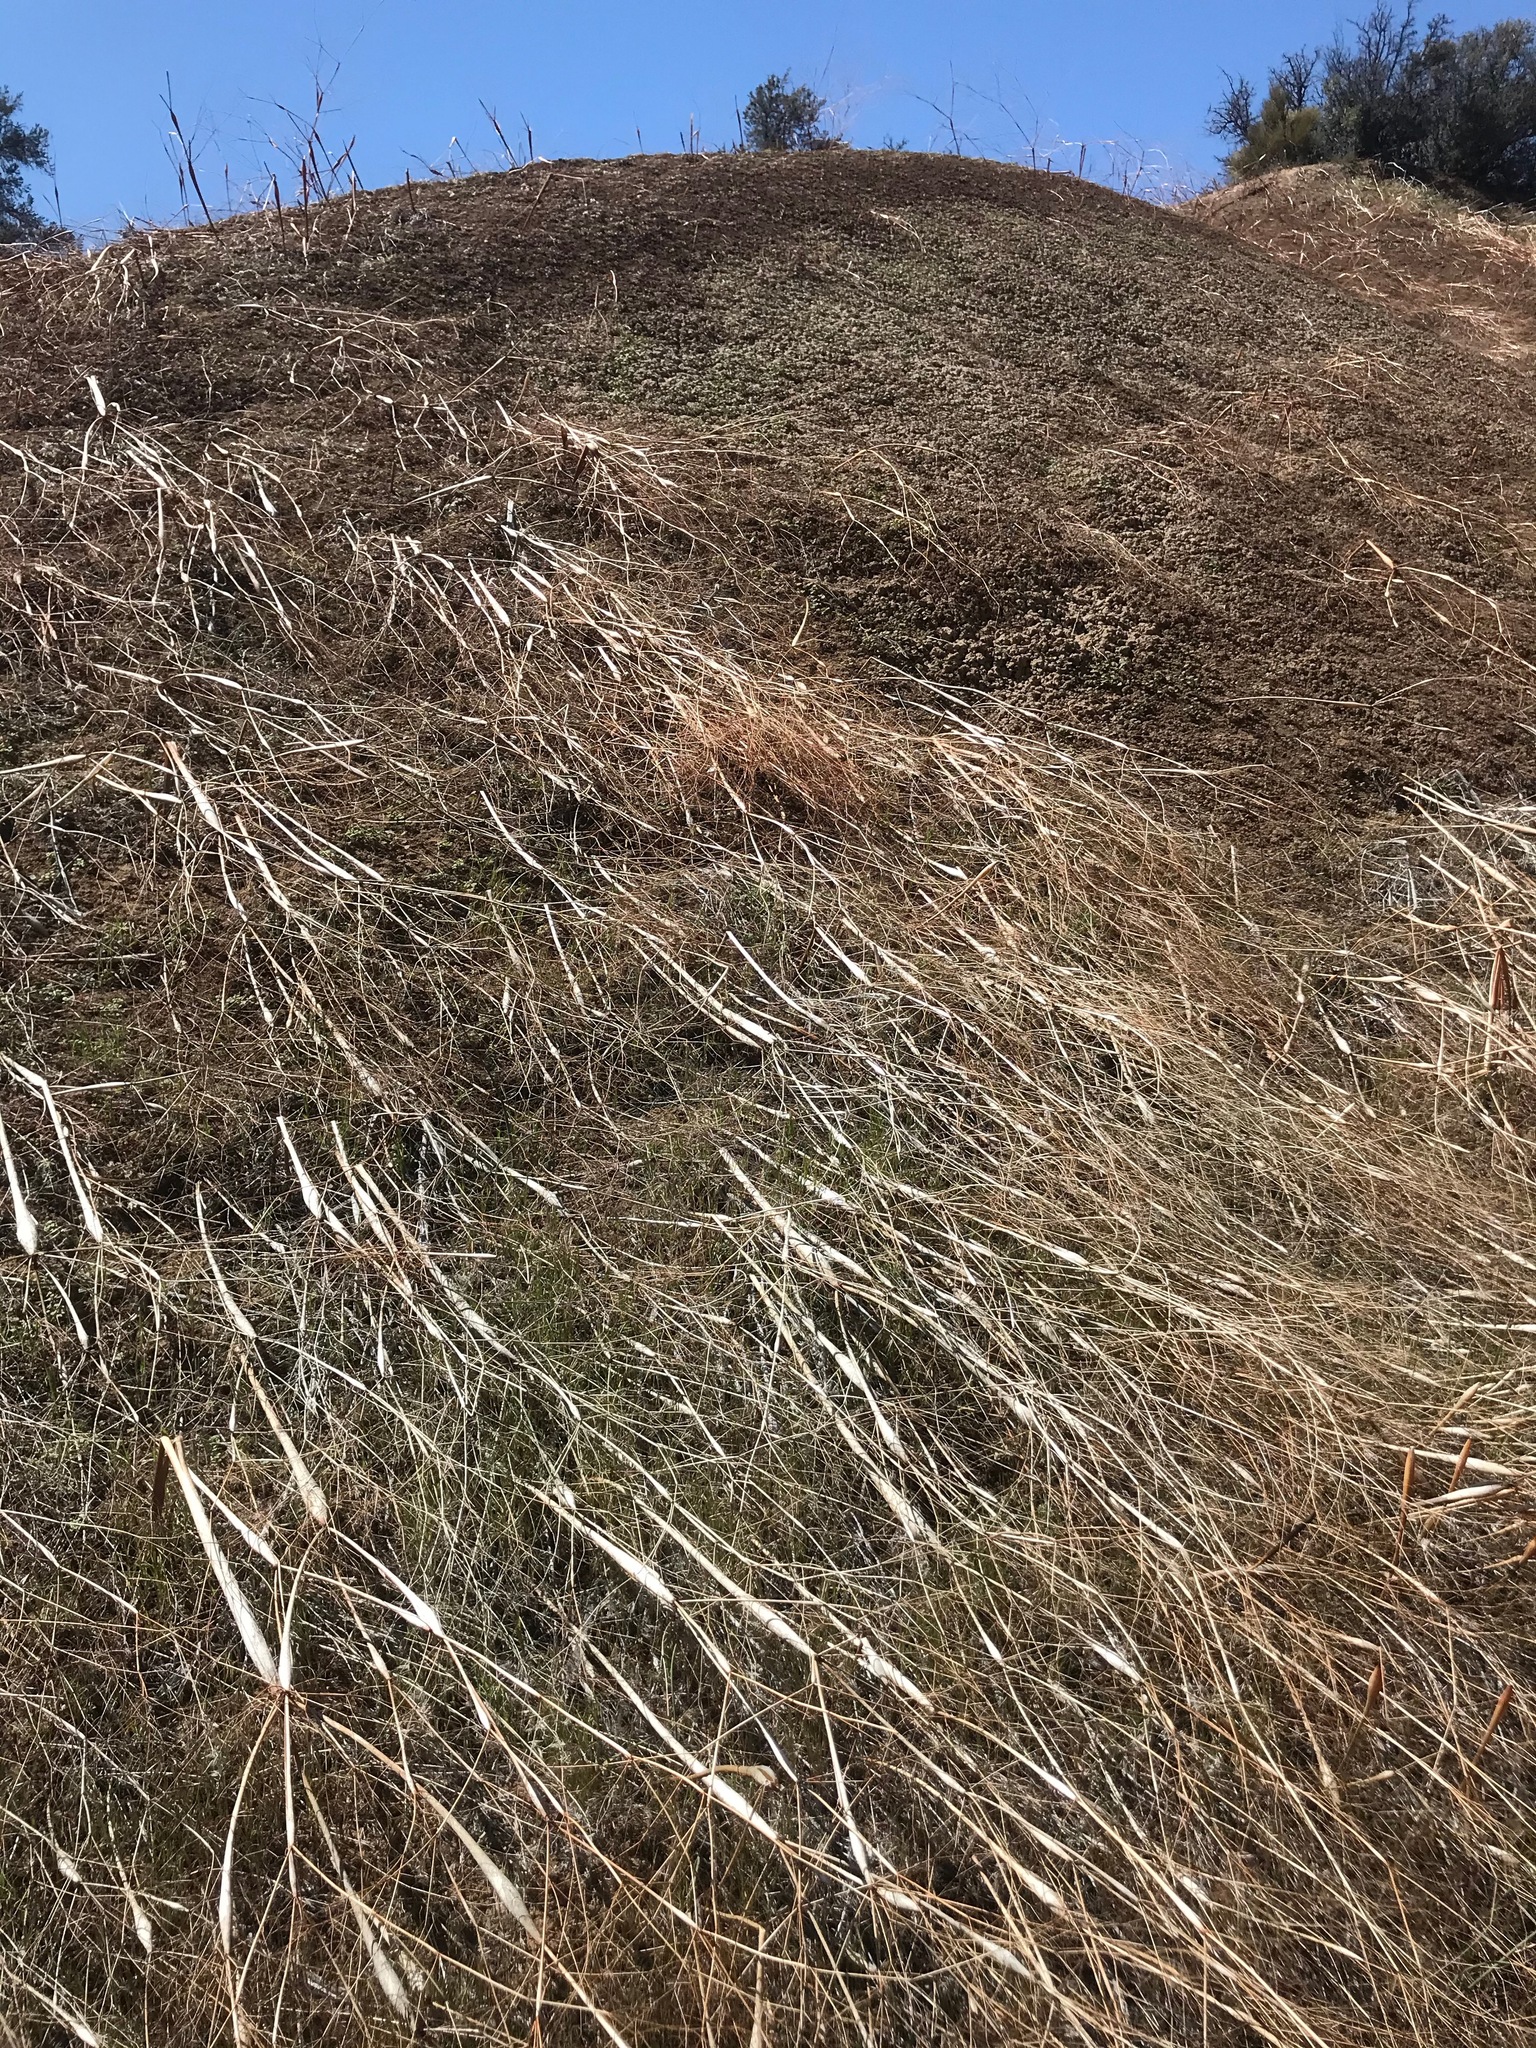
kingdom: Plantae
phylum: Tracheophyta
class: Magnoliopsida
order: Caryophyllales
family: Polygonaceae
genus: Eriogonum
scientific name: Eriogonum clavatum
